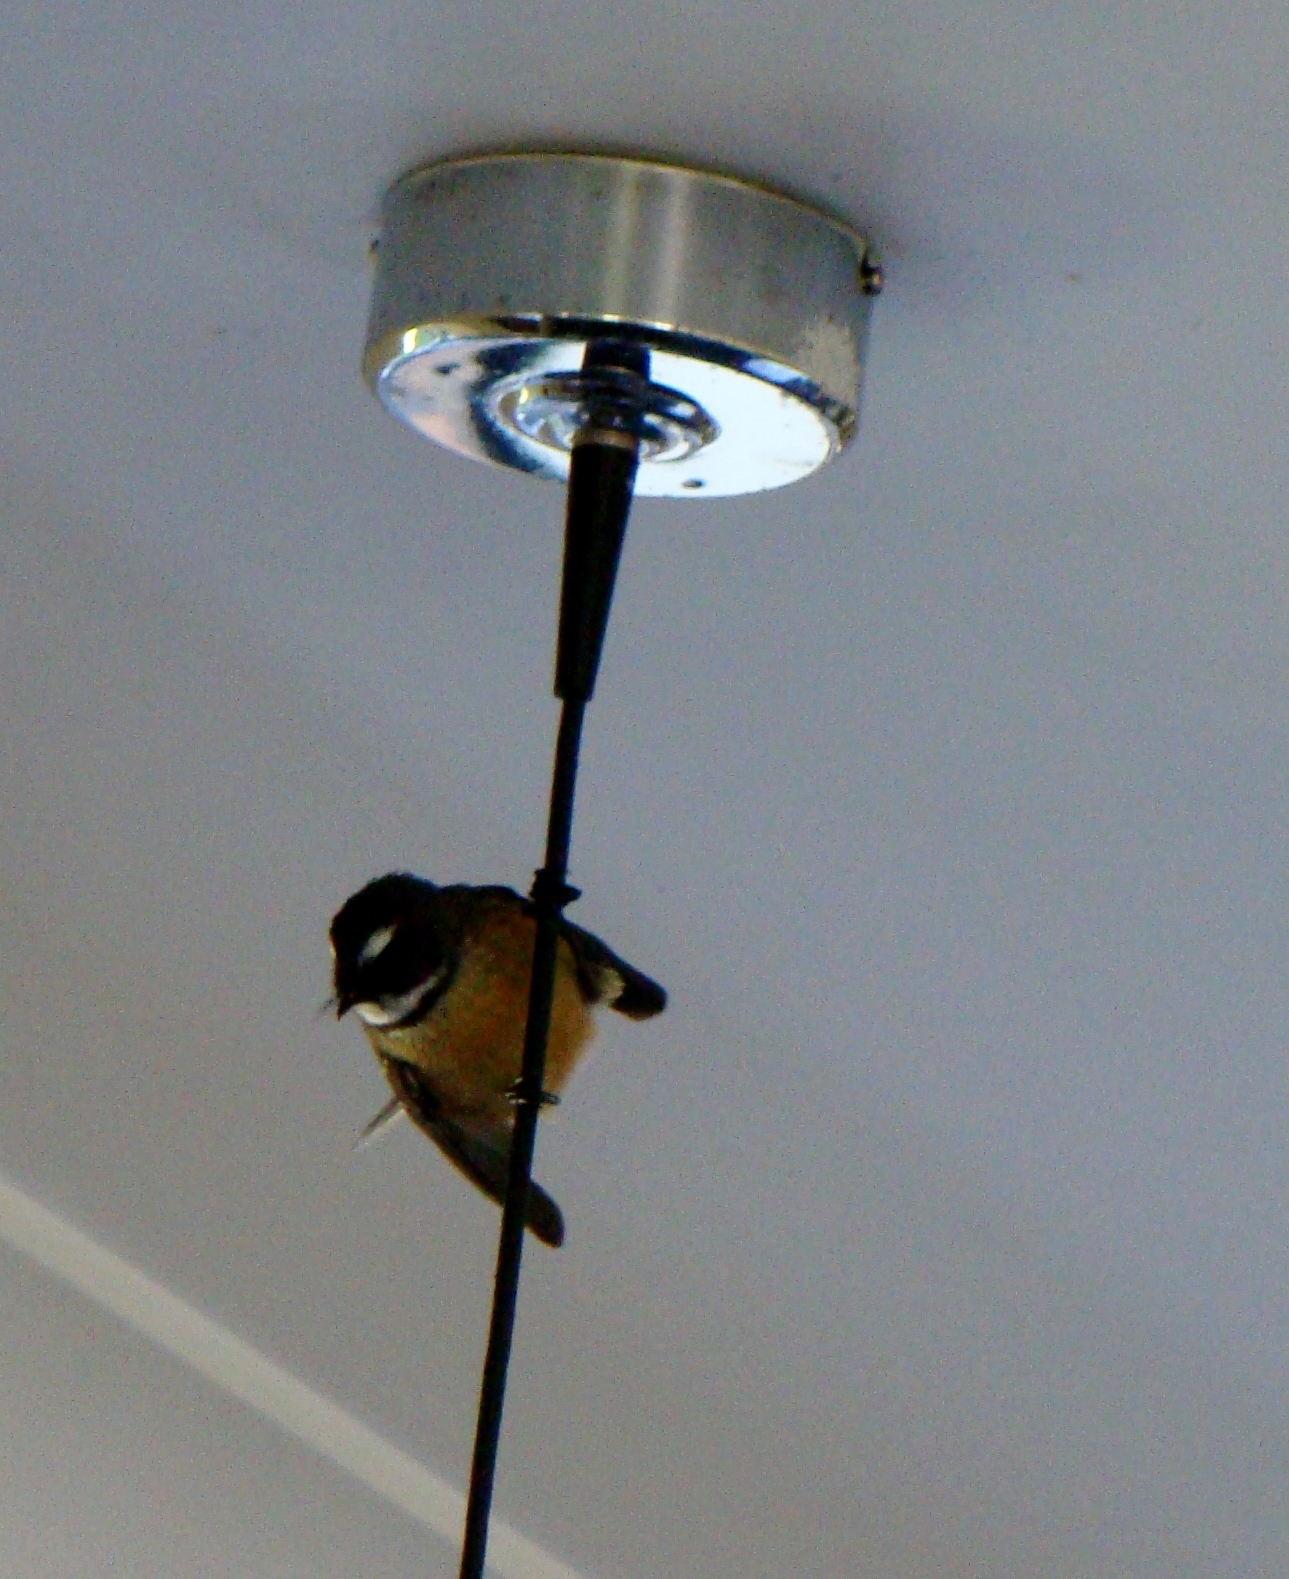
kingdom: Animalia
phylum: Chordata
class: Aves
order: Passeriformes
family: Rhipiduridae
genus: Rhipidura
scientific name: Rhipidura fuliginosa
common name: New zealand fantail
